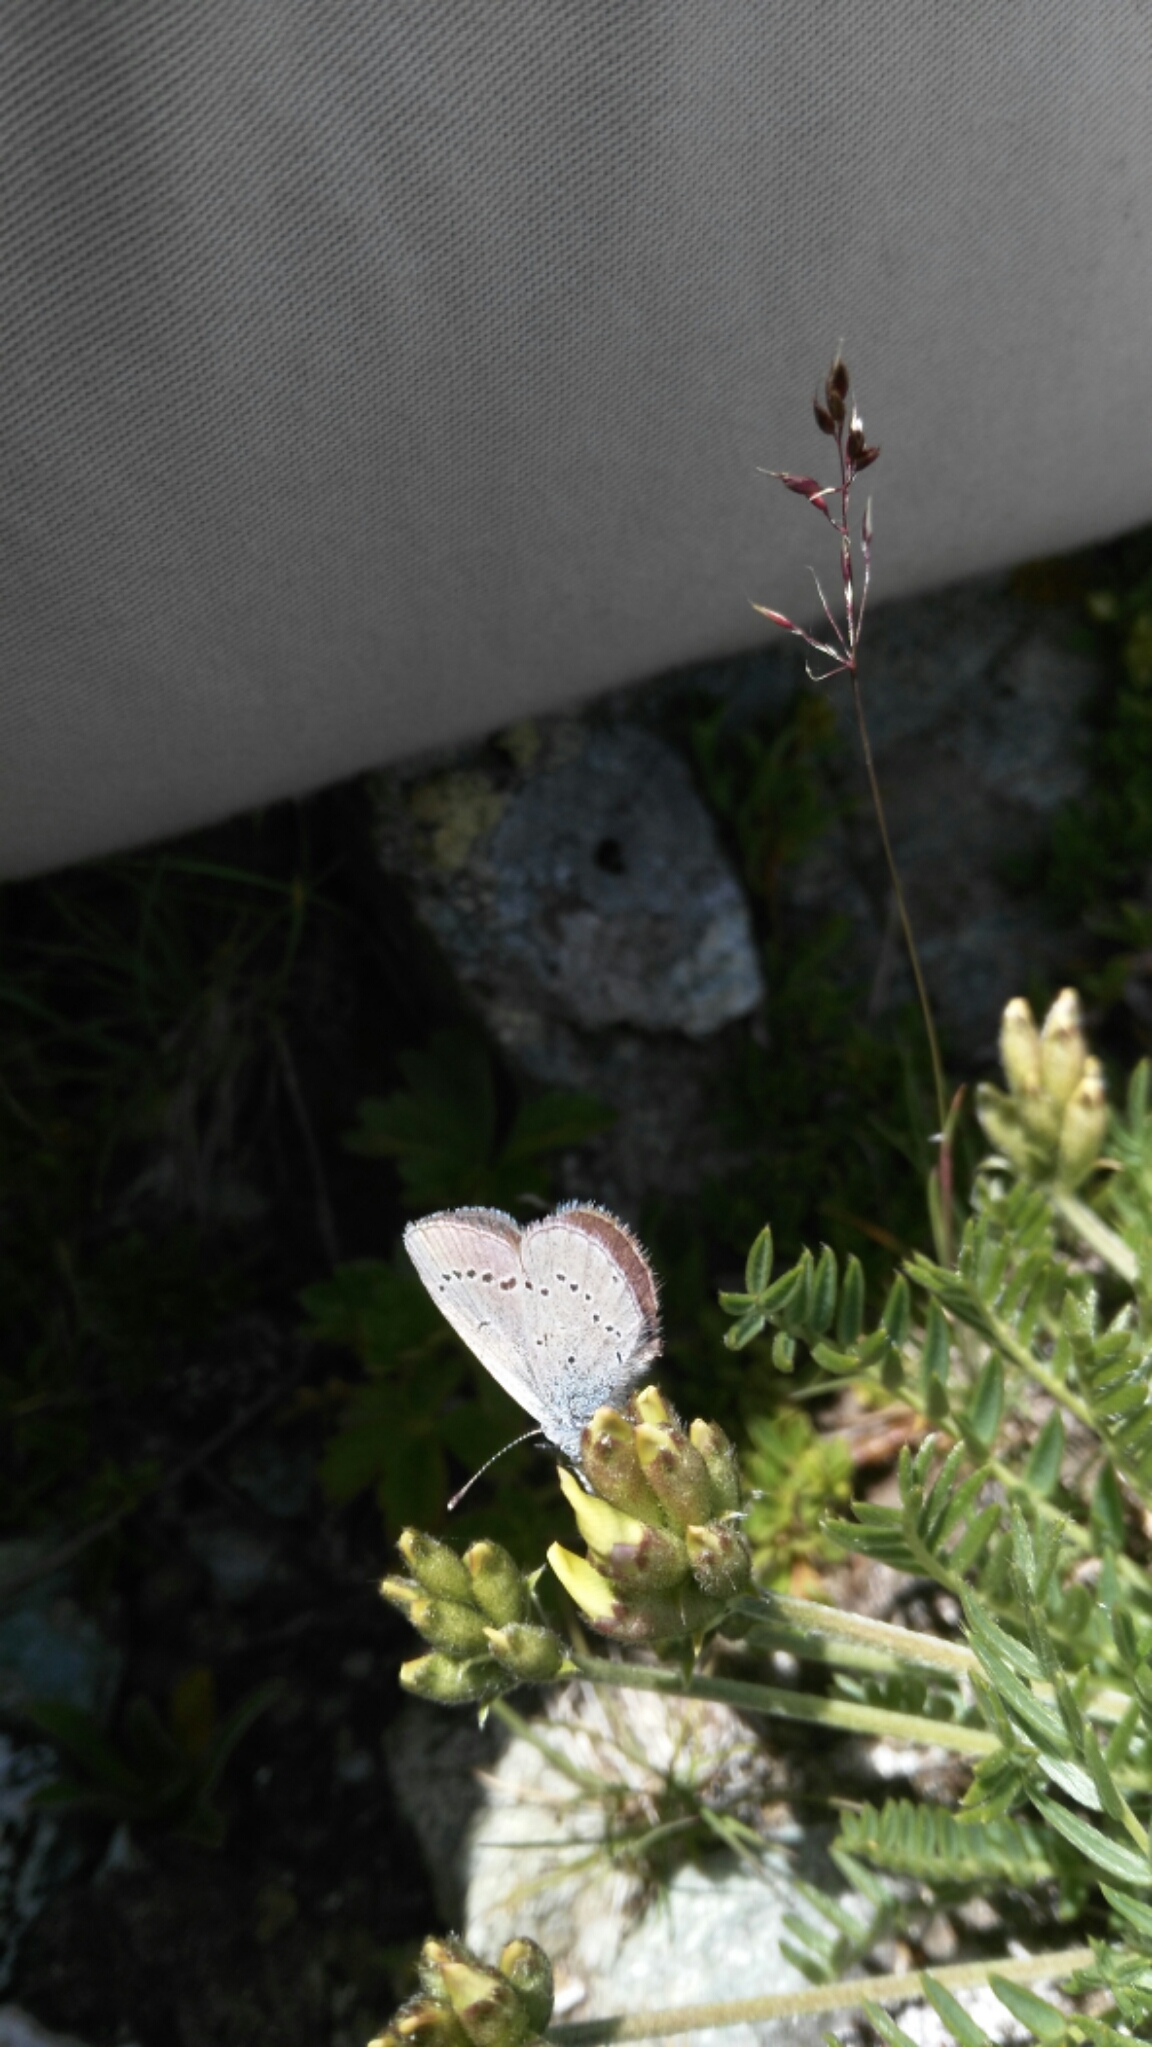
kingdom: Animalia
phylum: Arthropoda
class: Insecta
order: Lepidoptera
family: Lycaenidae
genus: Cupido
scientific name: Cupido minimus
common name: Small blue
